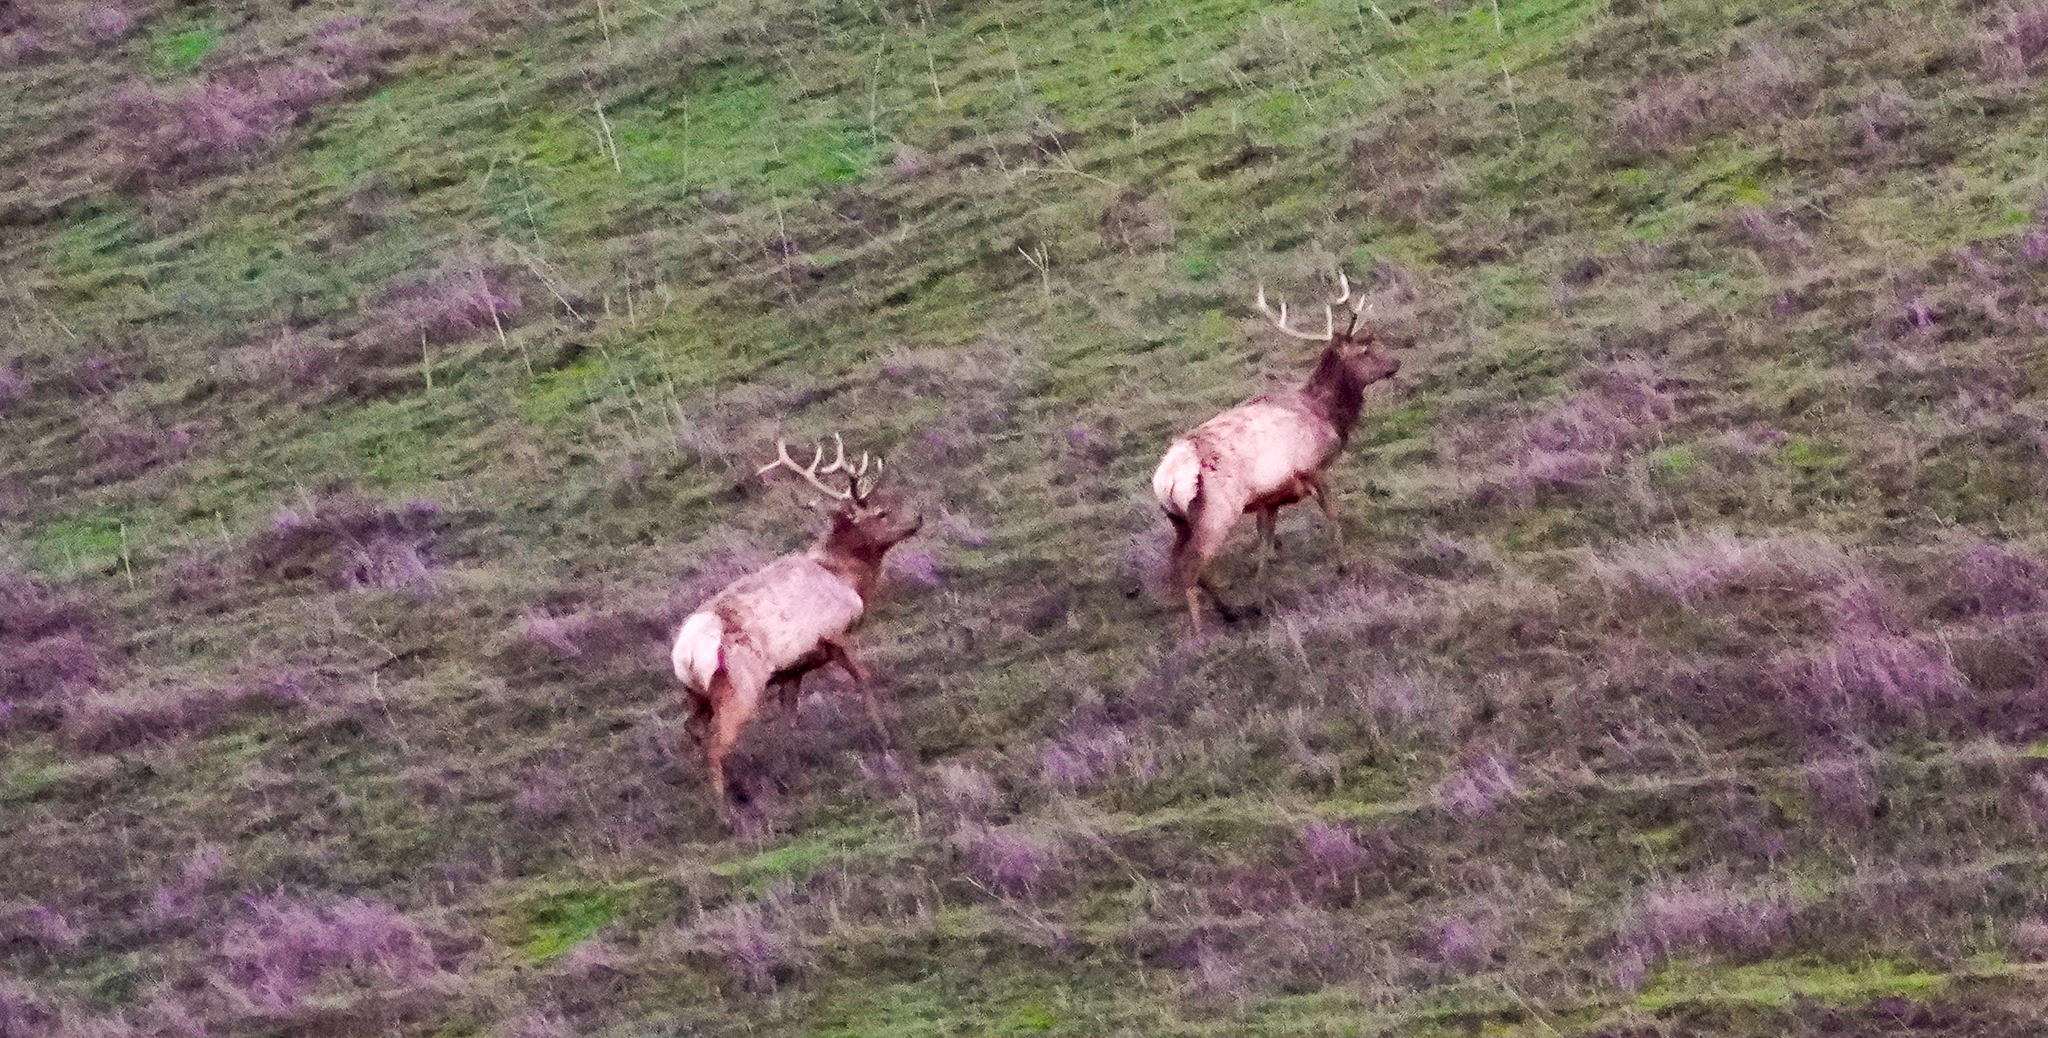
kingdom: Animalia
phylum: Chordata
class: Mammalia
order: Artiodactyla
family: Cervidae
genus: Cervus
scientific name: Cervus elaphus
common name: Red deer
